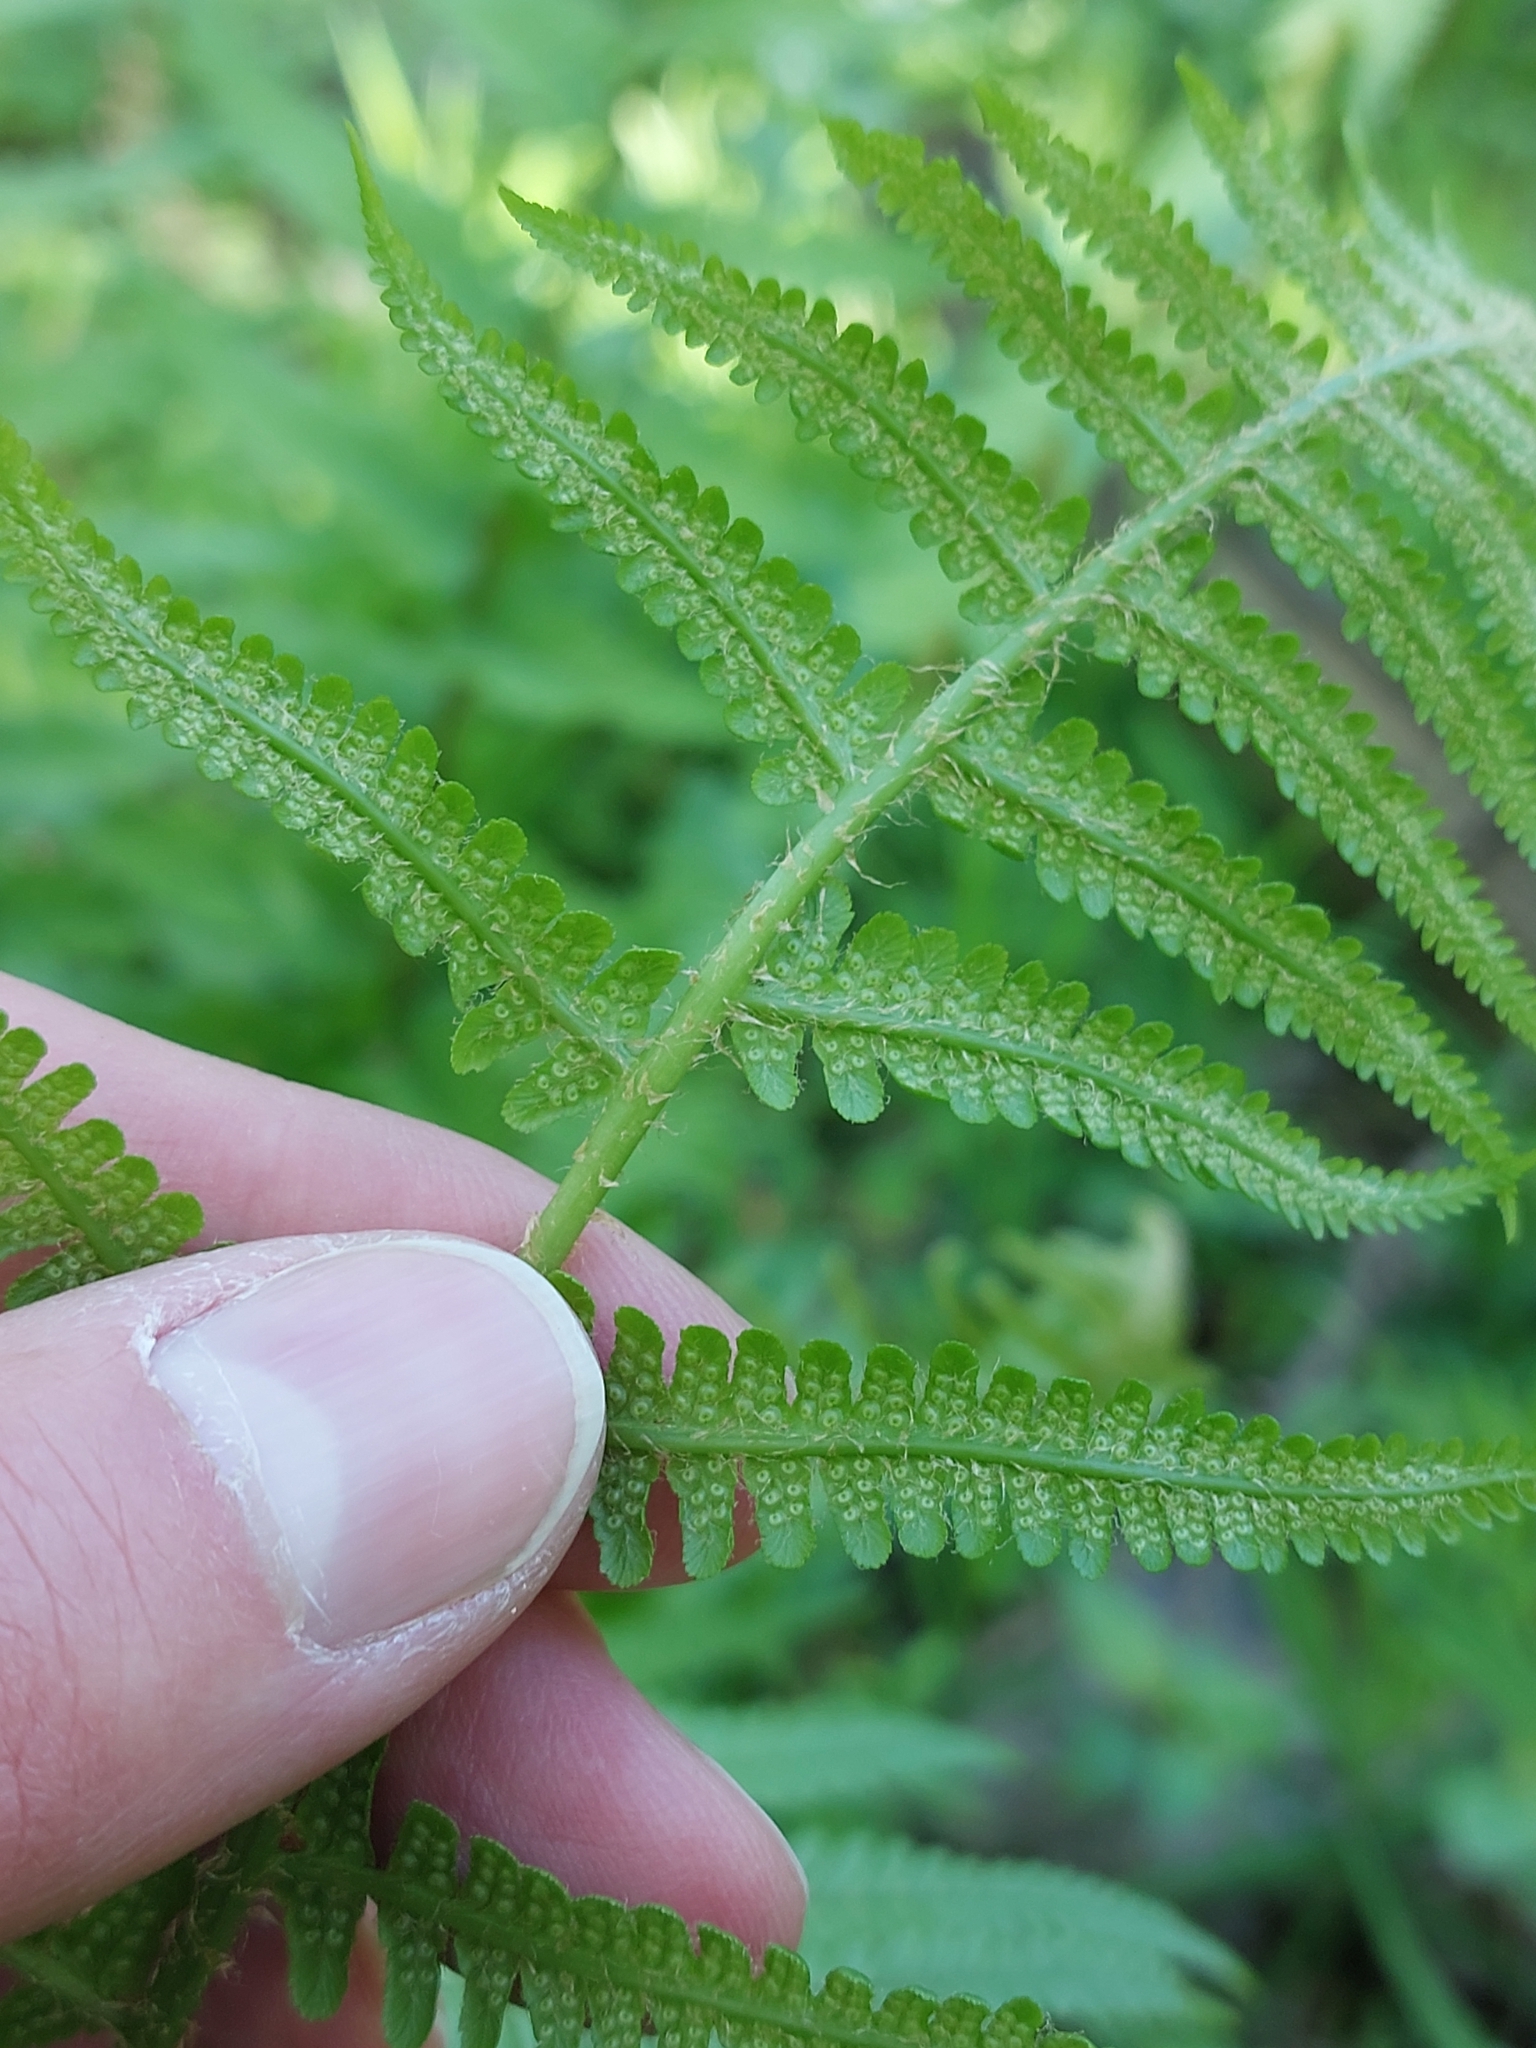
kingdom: Plantae
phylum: Tracheophyta
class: Polypodiopsida
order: Polypodiales
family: Dryopteridaceae
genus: Dryopteris
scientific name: Dryopteris filix-mas
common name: Male fern
